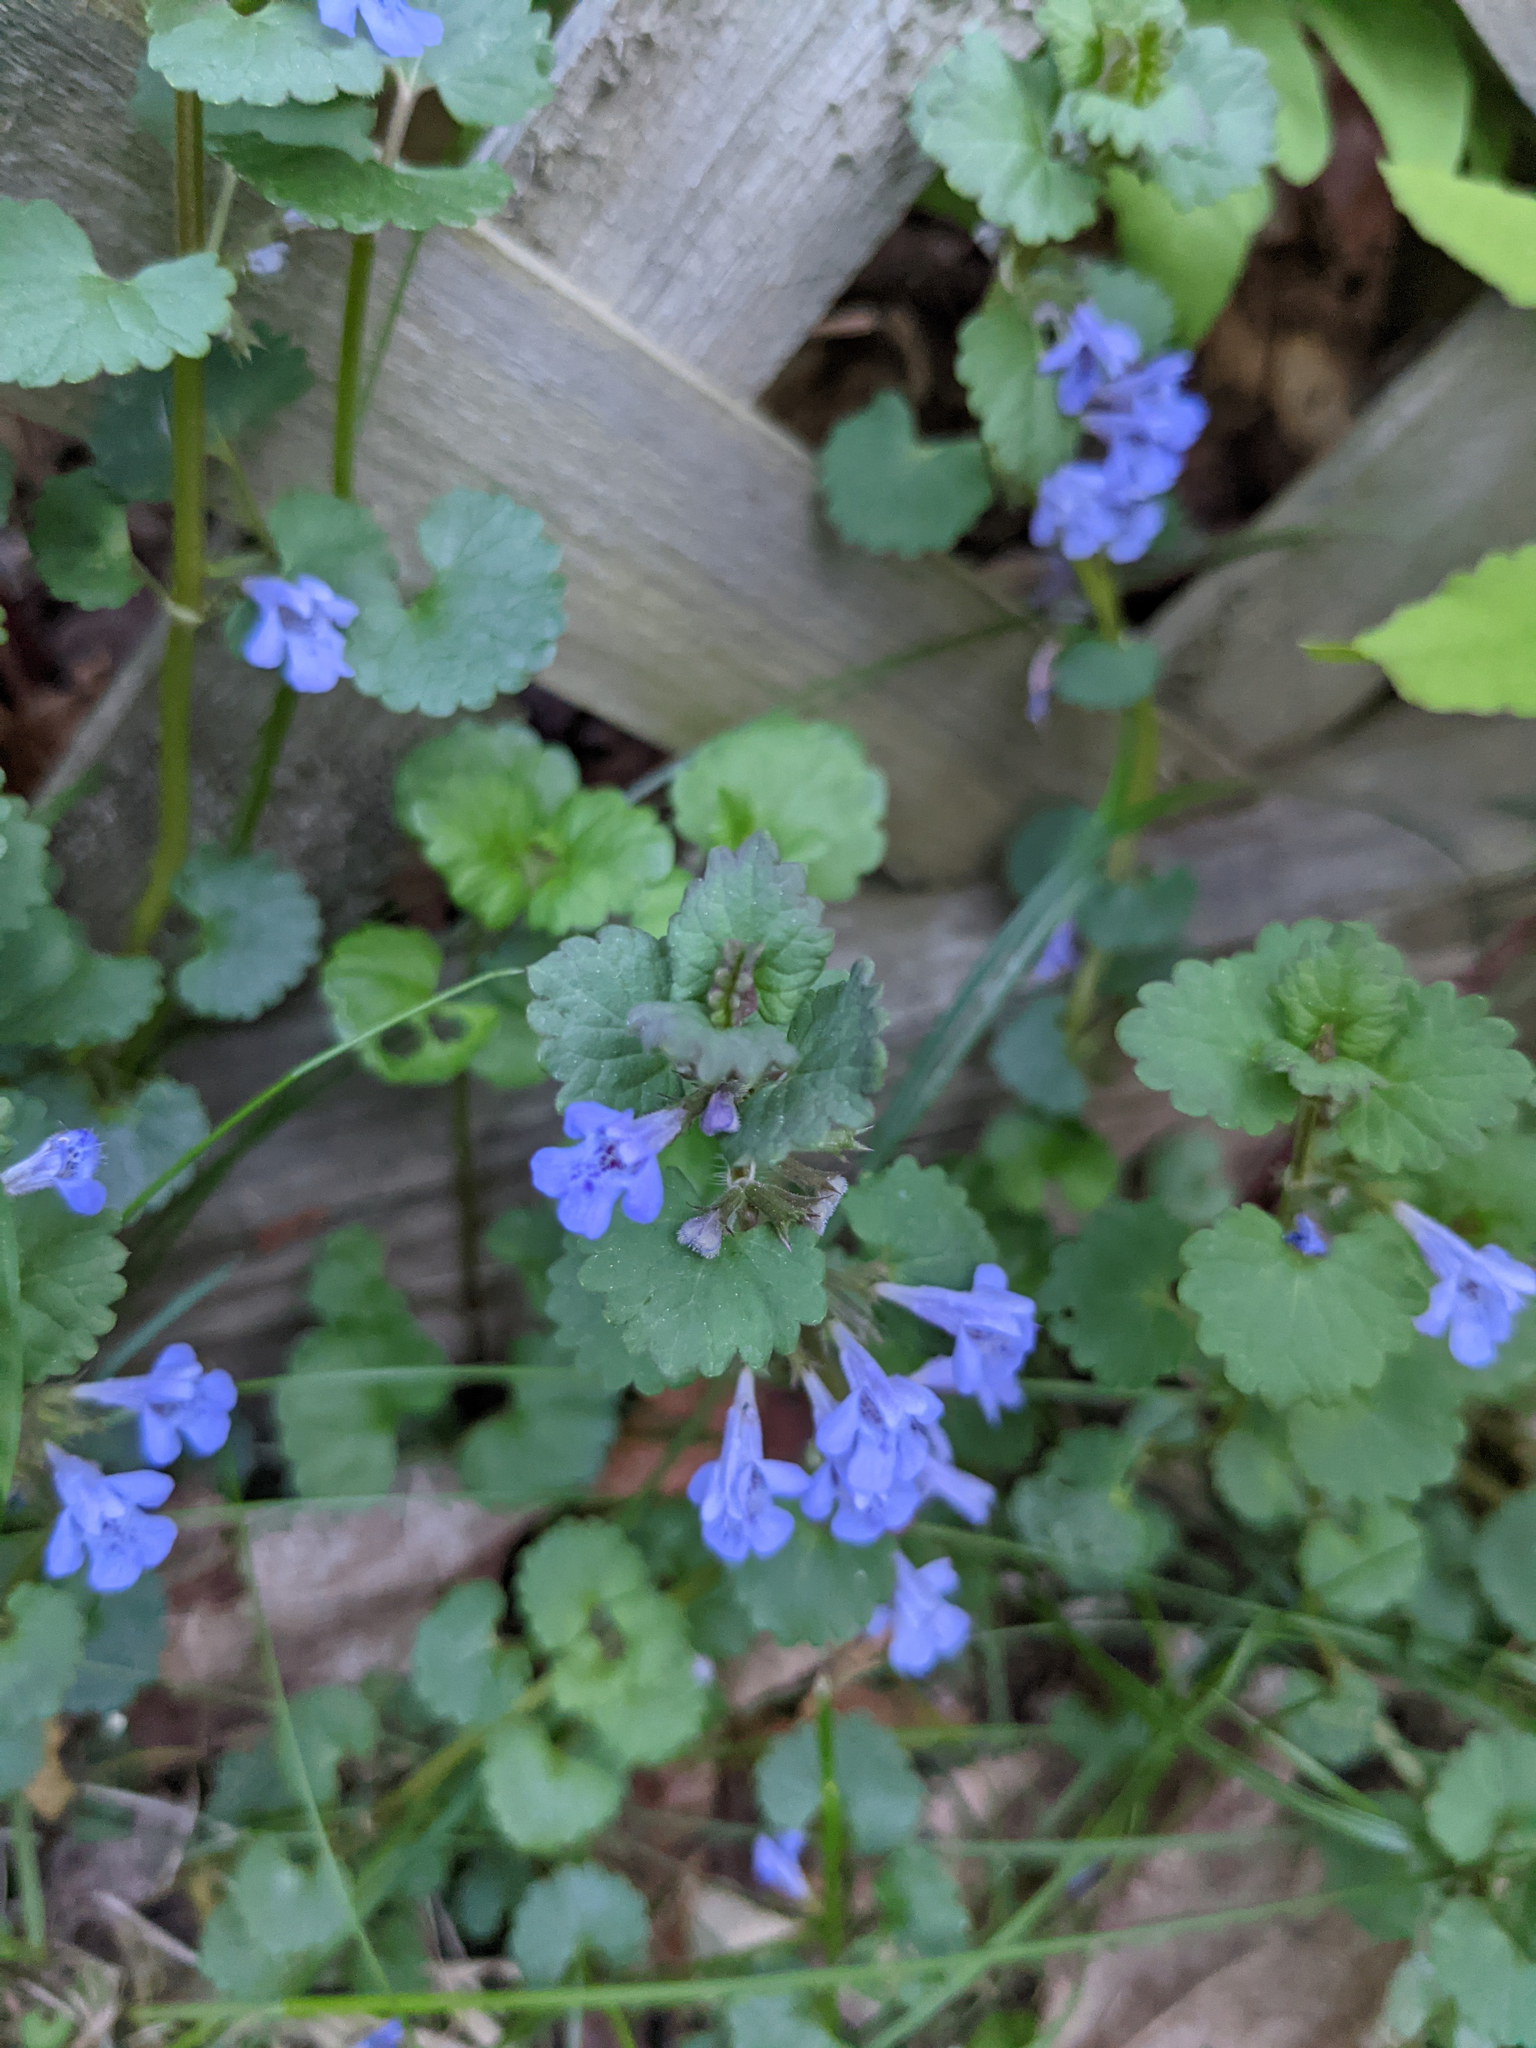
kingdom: Plantae
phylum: Tracheophyta
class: Magnoliopsida
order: Lamiales
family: Lamiaceae
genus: Glechoma
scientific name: Glechoma hederacea
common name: Ground ivy
